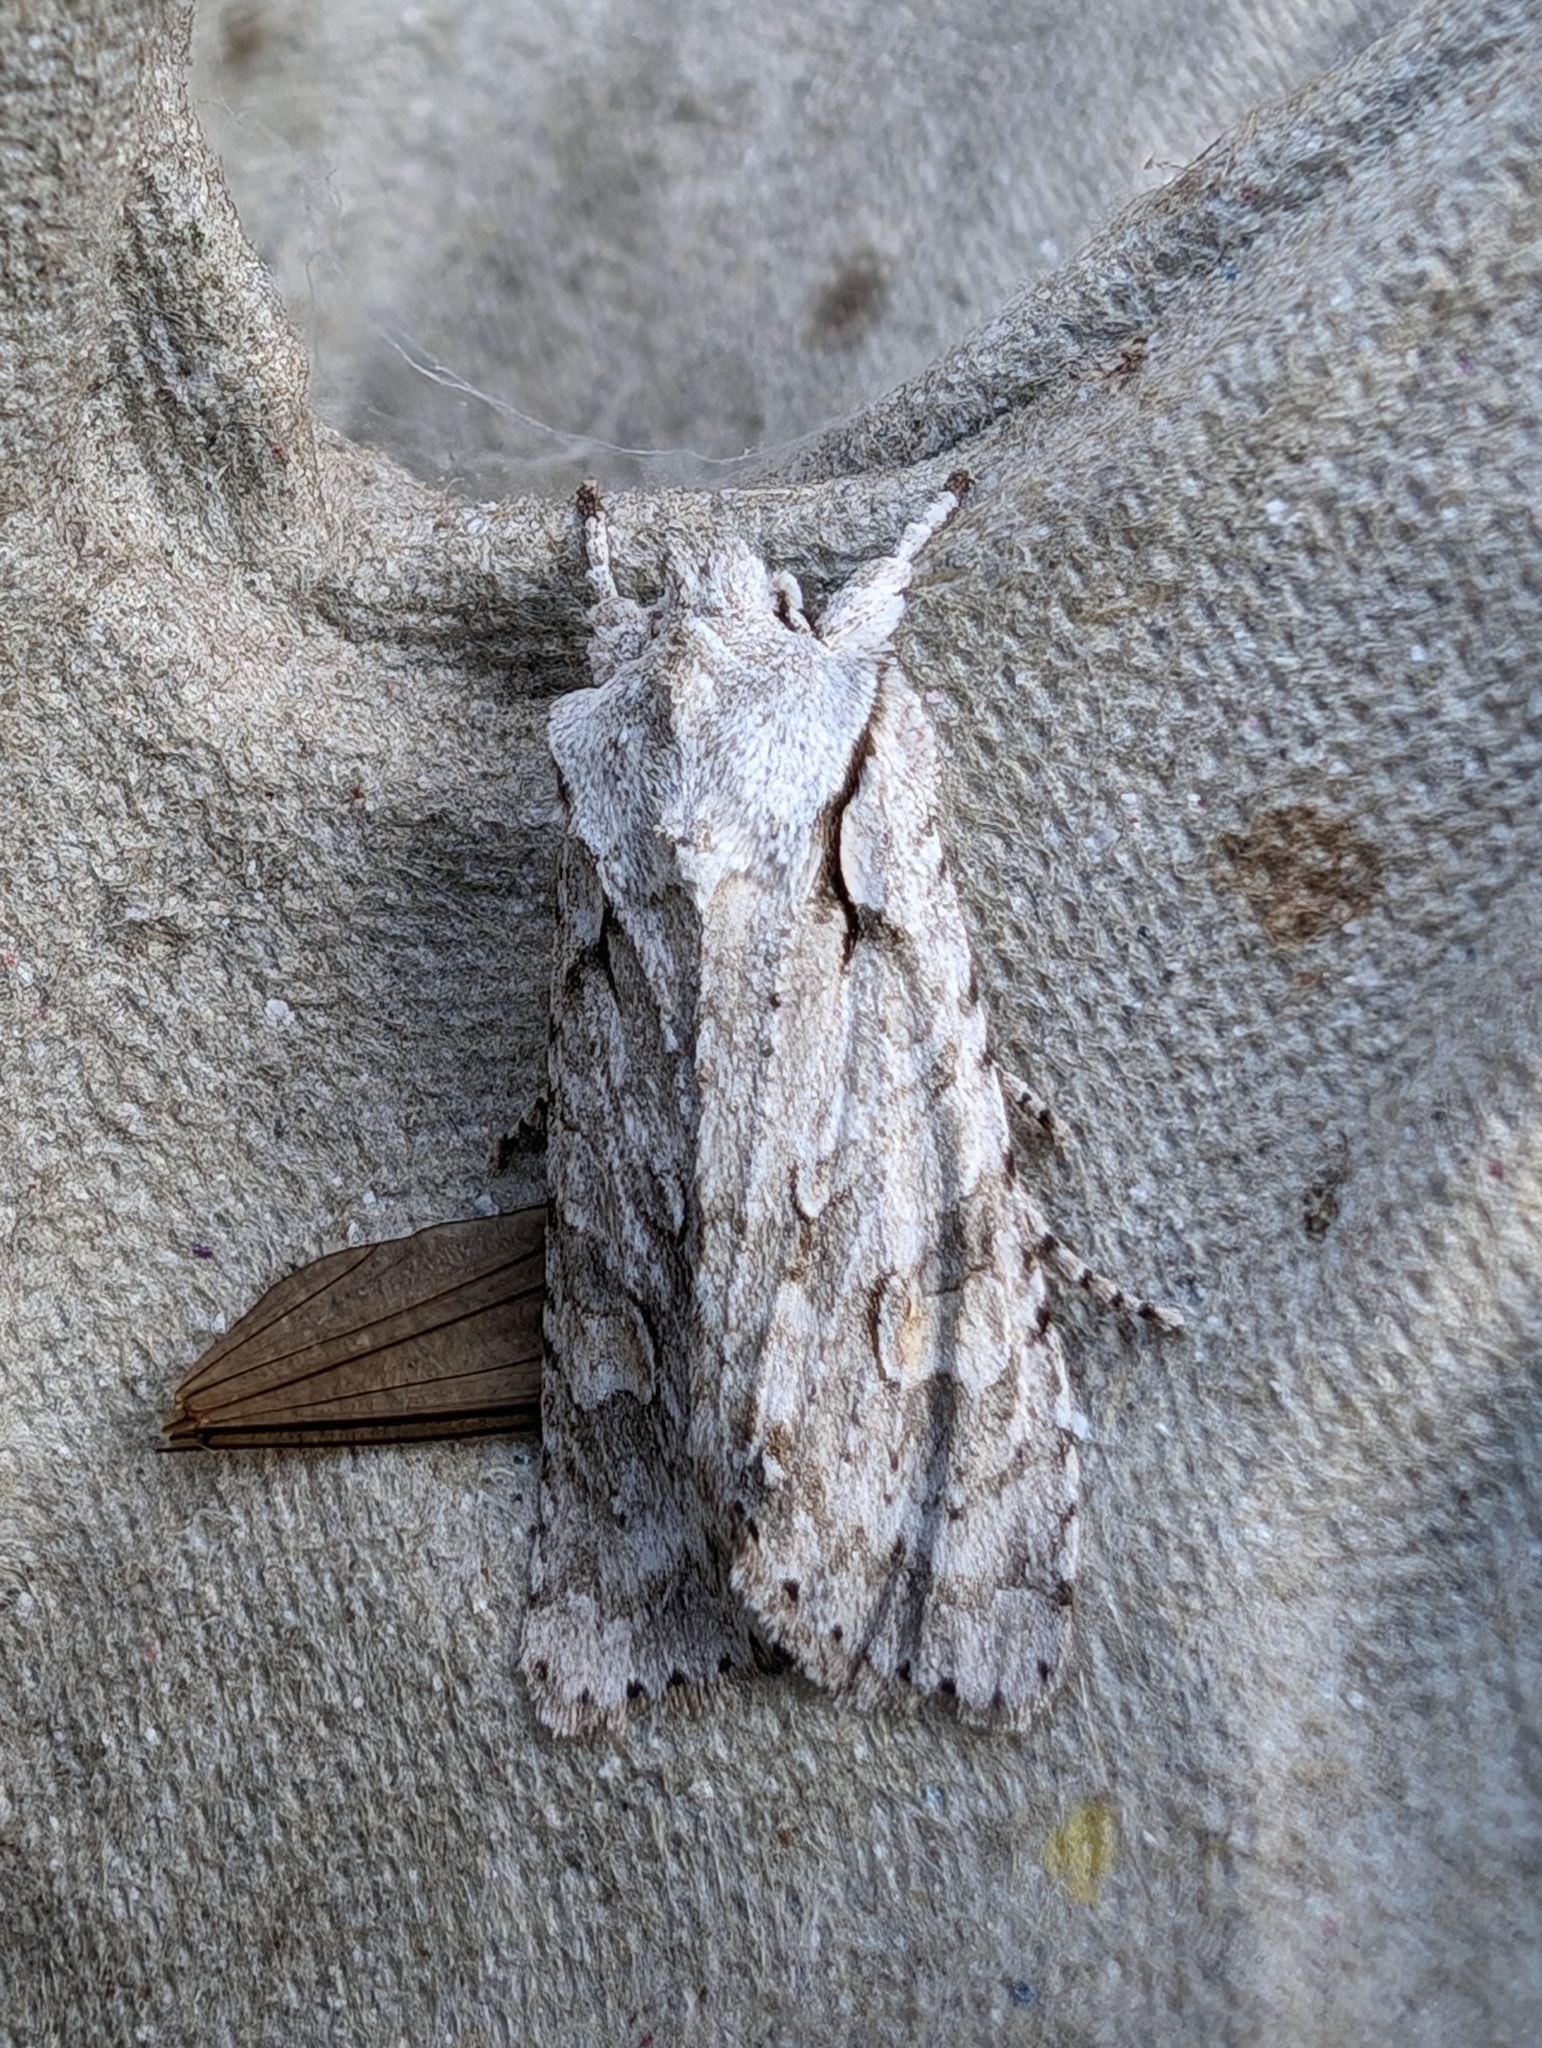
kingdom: Animalia
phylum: Arthropoda
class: Insecta
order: Lepidoptera
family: Noctuidae
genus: Lithophane
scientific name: Lithophane ornitopus
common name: Grey shoulder-knot
